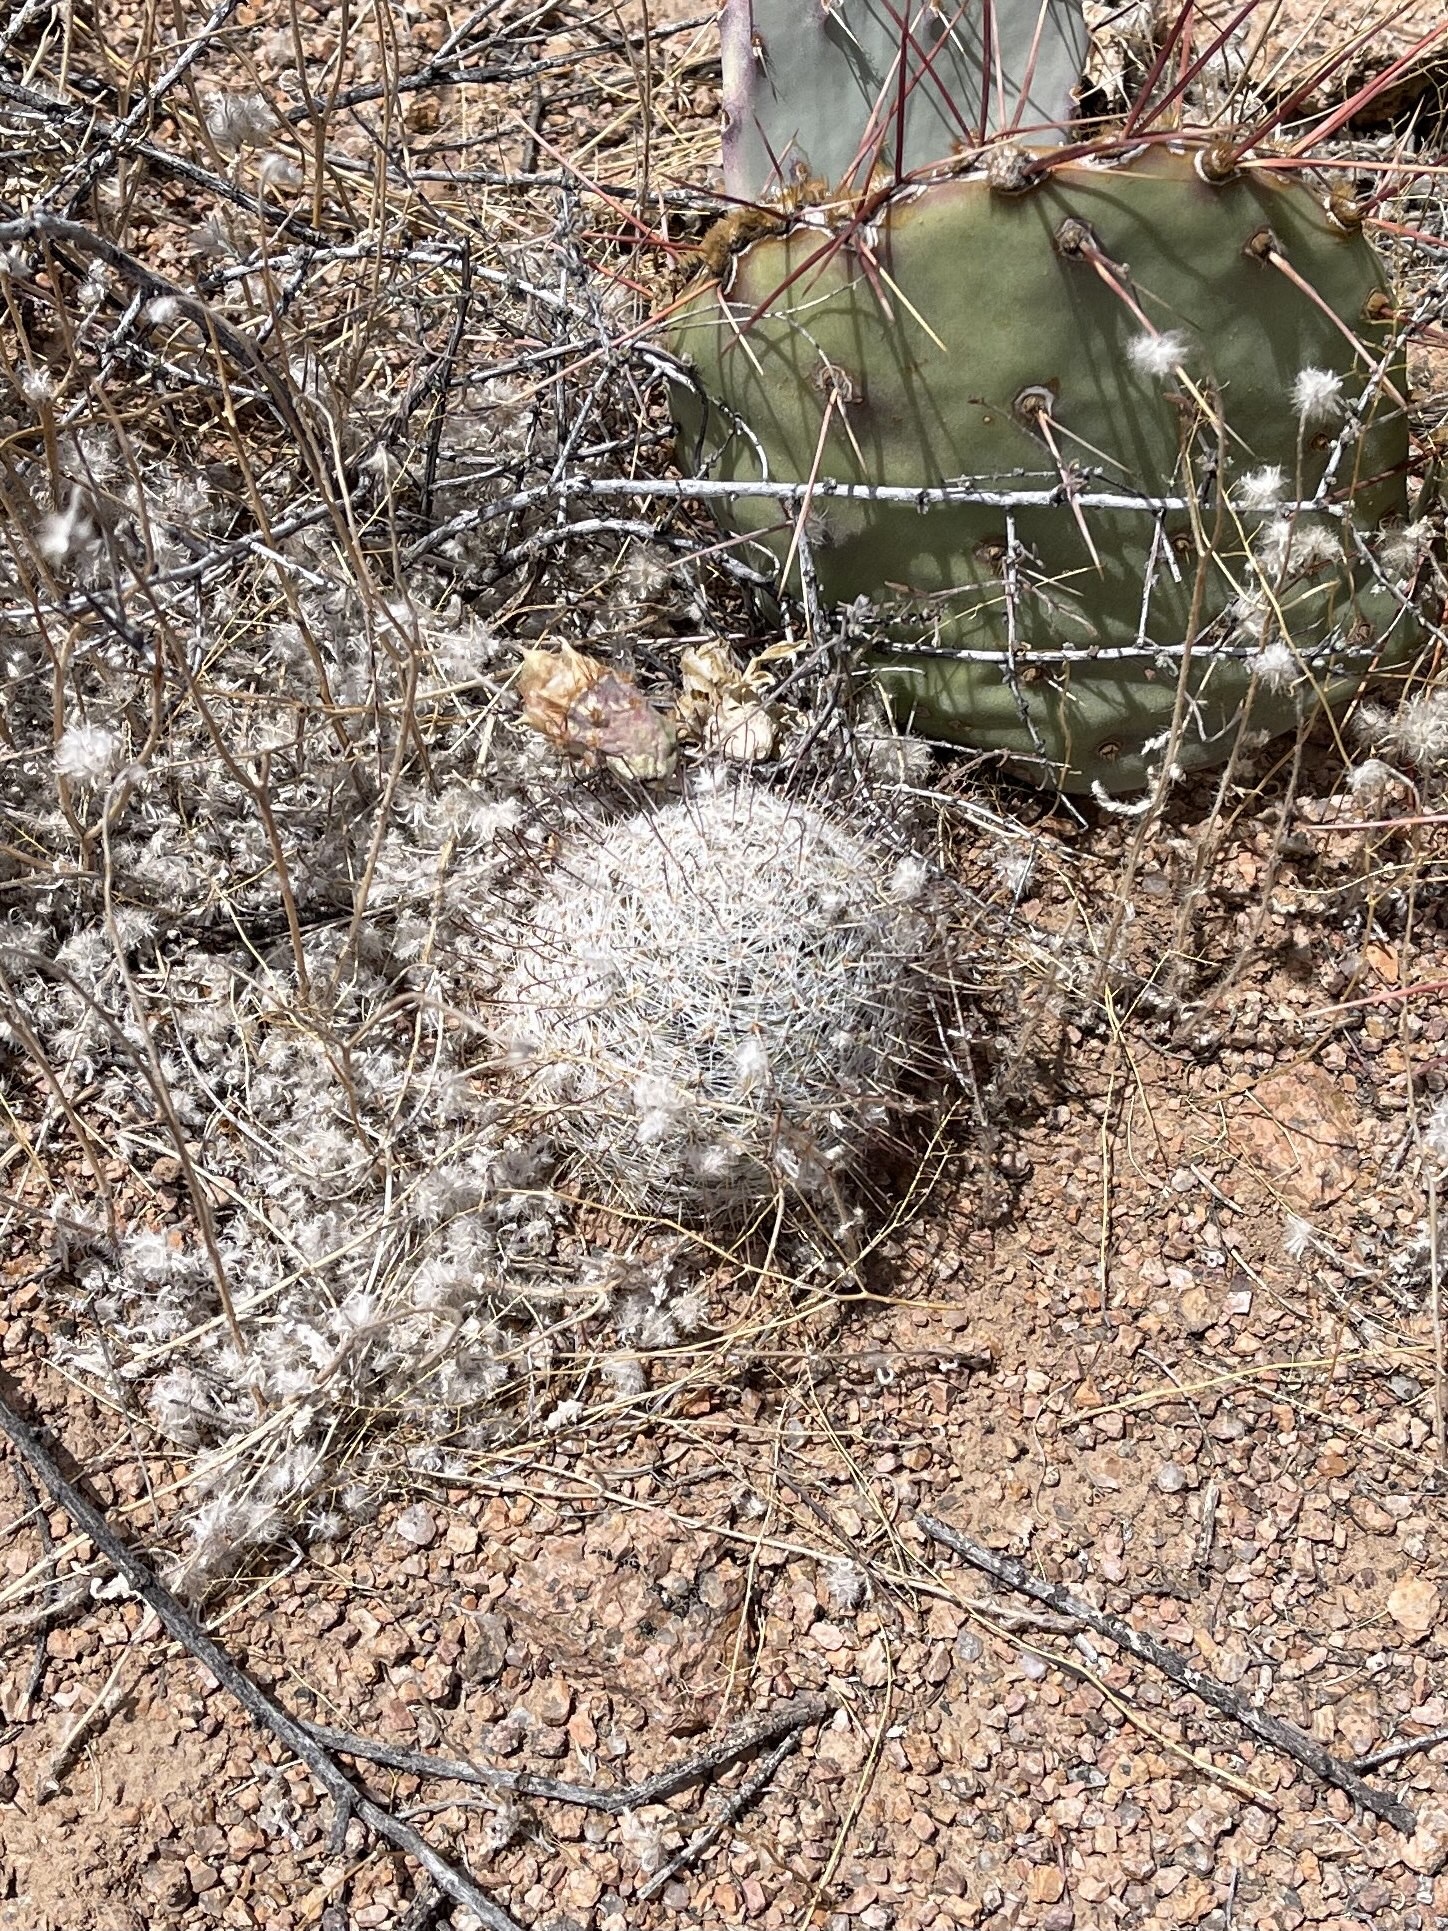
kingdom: Plantae
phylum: Tracheophyta
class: Magnoliopsida
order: Caryophyllales
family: Cactaceae
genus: Cochemiea
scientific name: Cochemiea grahamii
